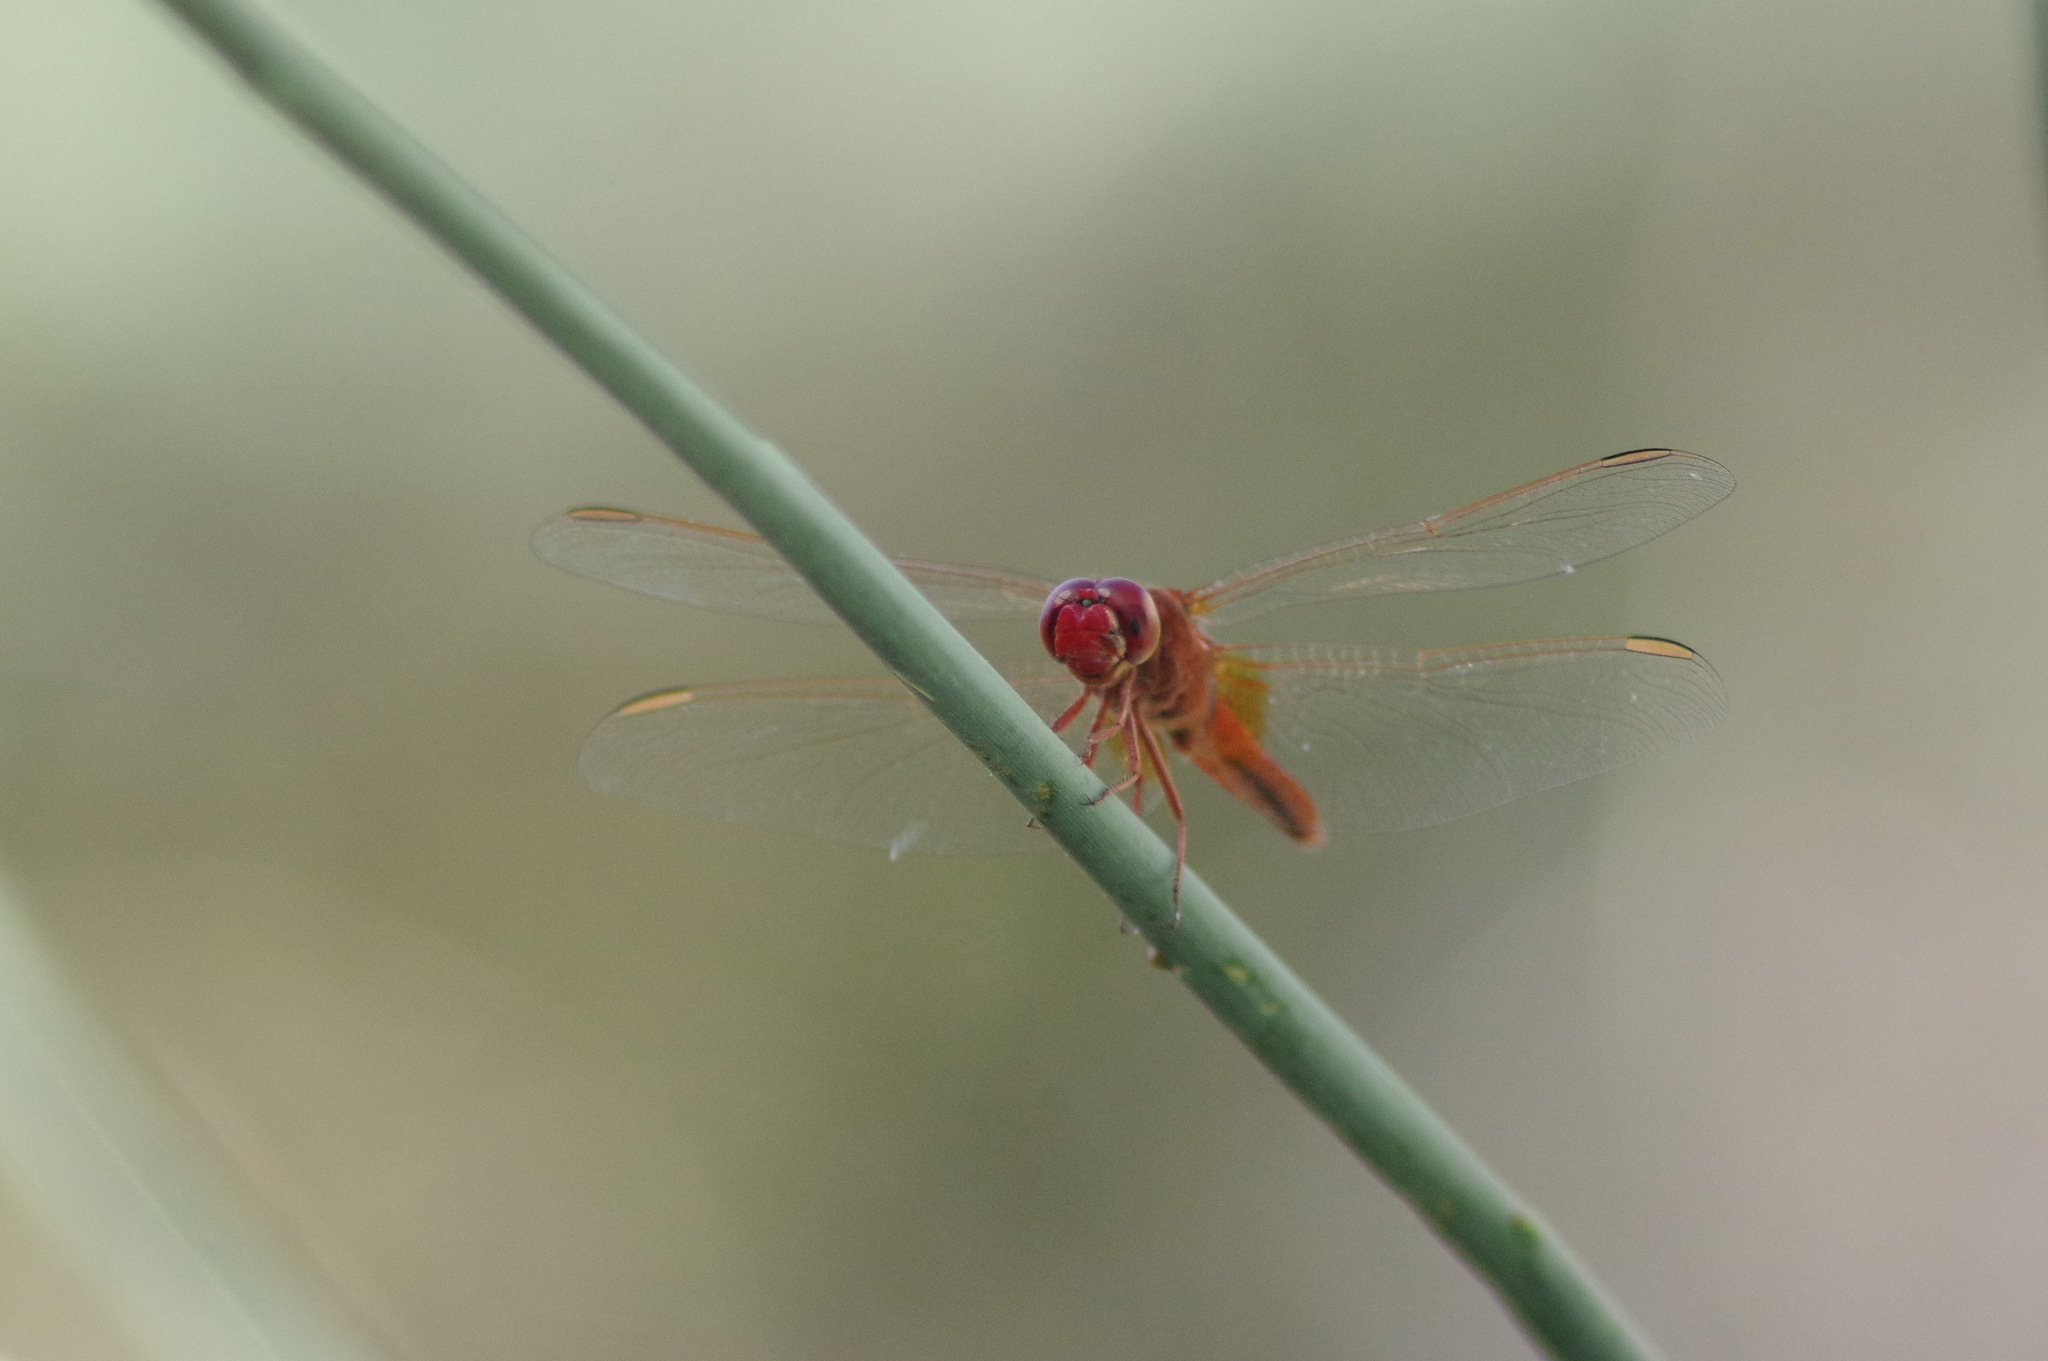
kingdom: Animalia
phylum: Arthropoda
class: Insecta
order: Odonata
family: Libellulidae
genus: Crocothemis
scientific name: Crocothemis erythraea
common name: Scarlet dragonfly
